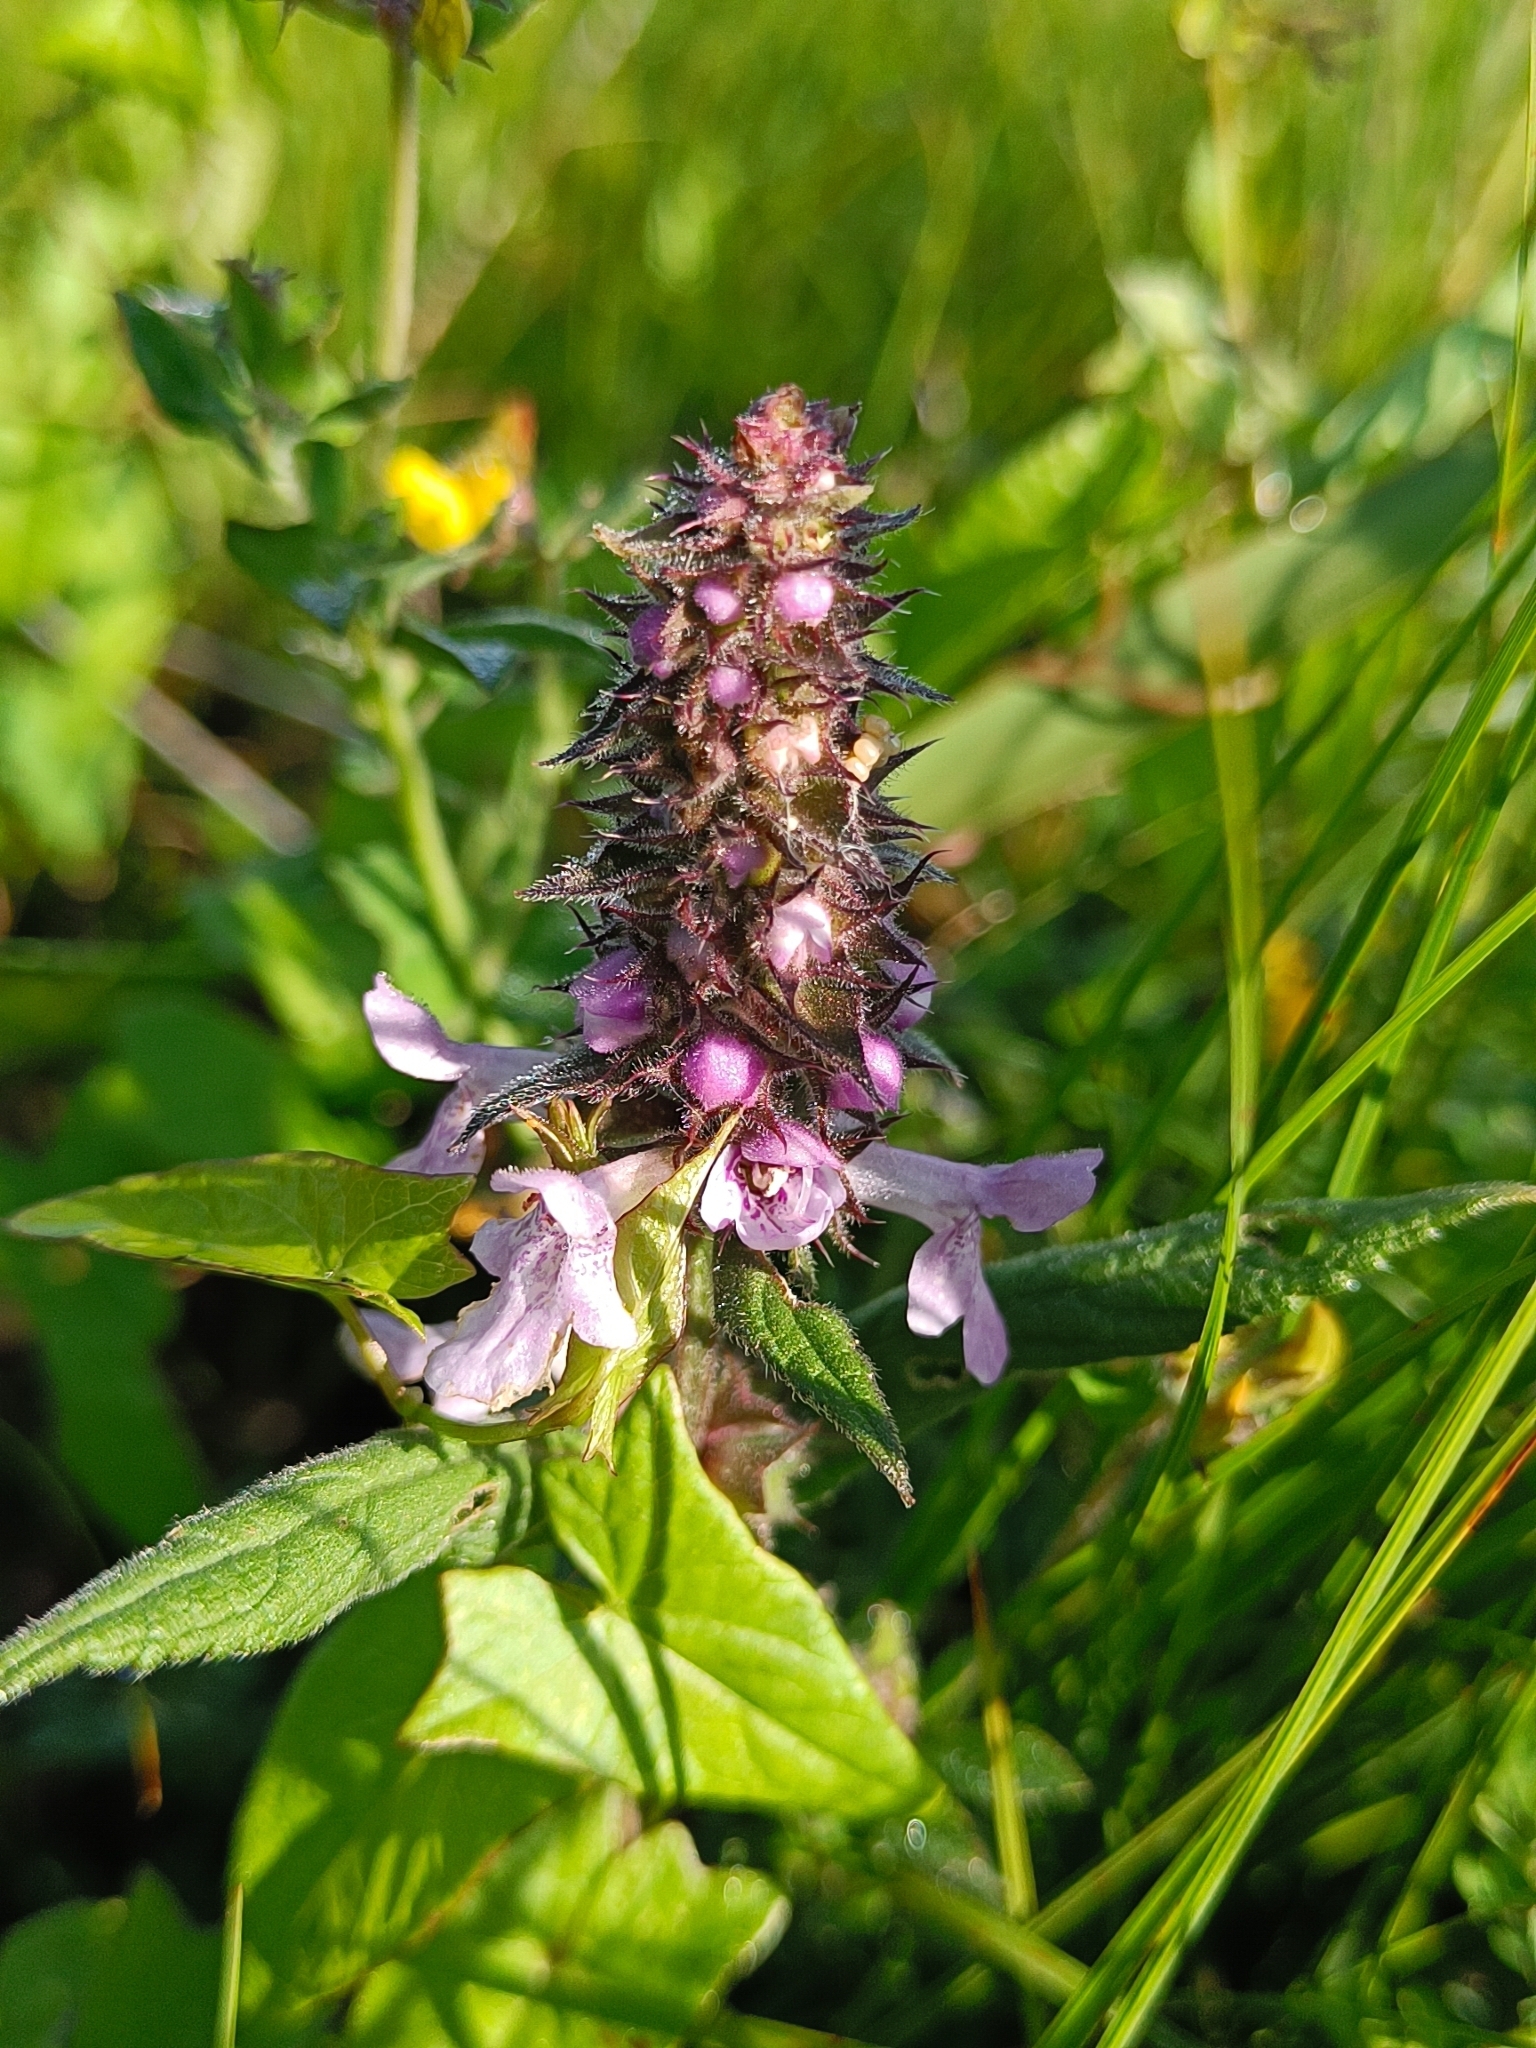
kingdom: Plantae
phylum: Tracheophyta
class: Magnoliopsida
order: Lamiales
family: Lamiaceae
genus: Stachys
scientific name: Stachys palustris
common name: Marsh woundwort
